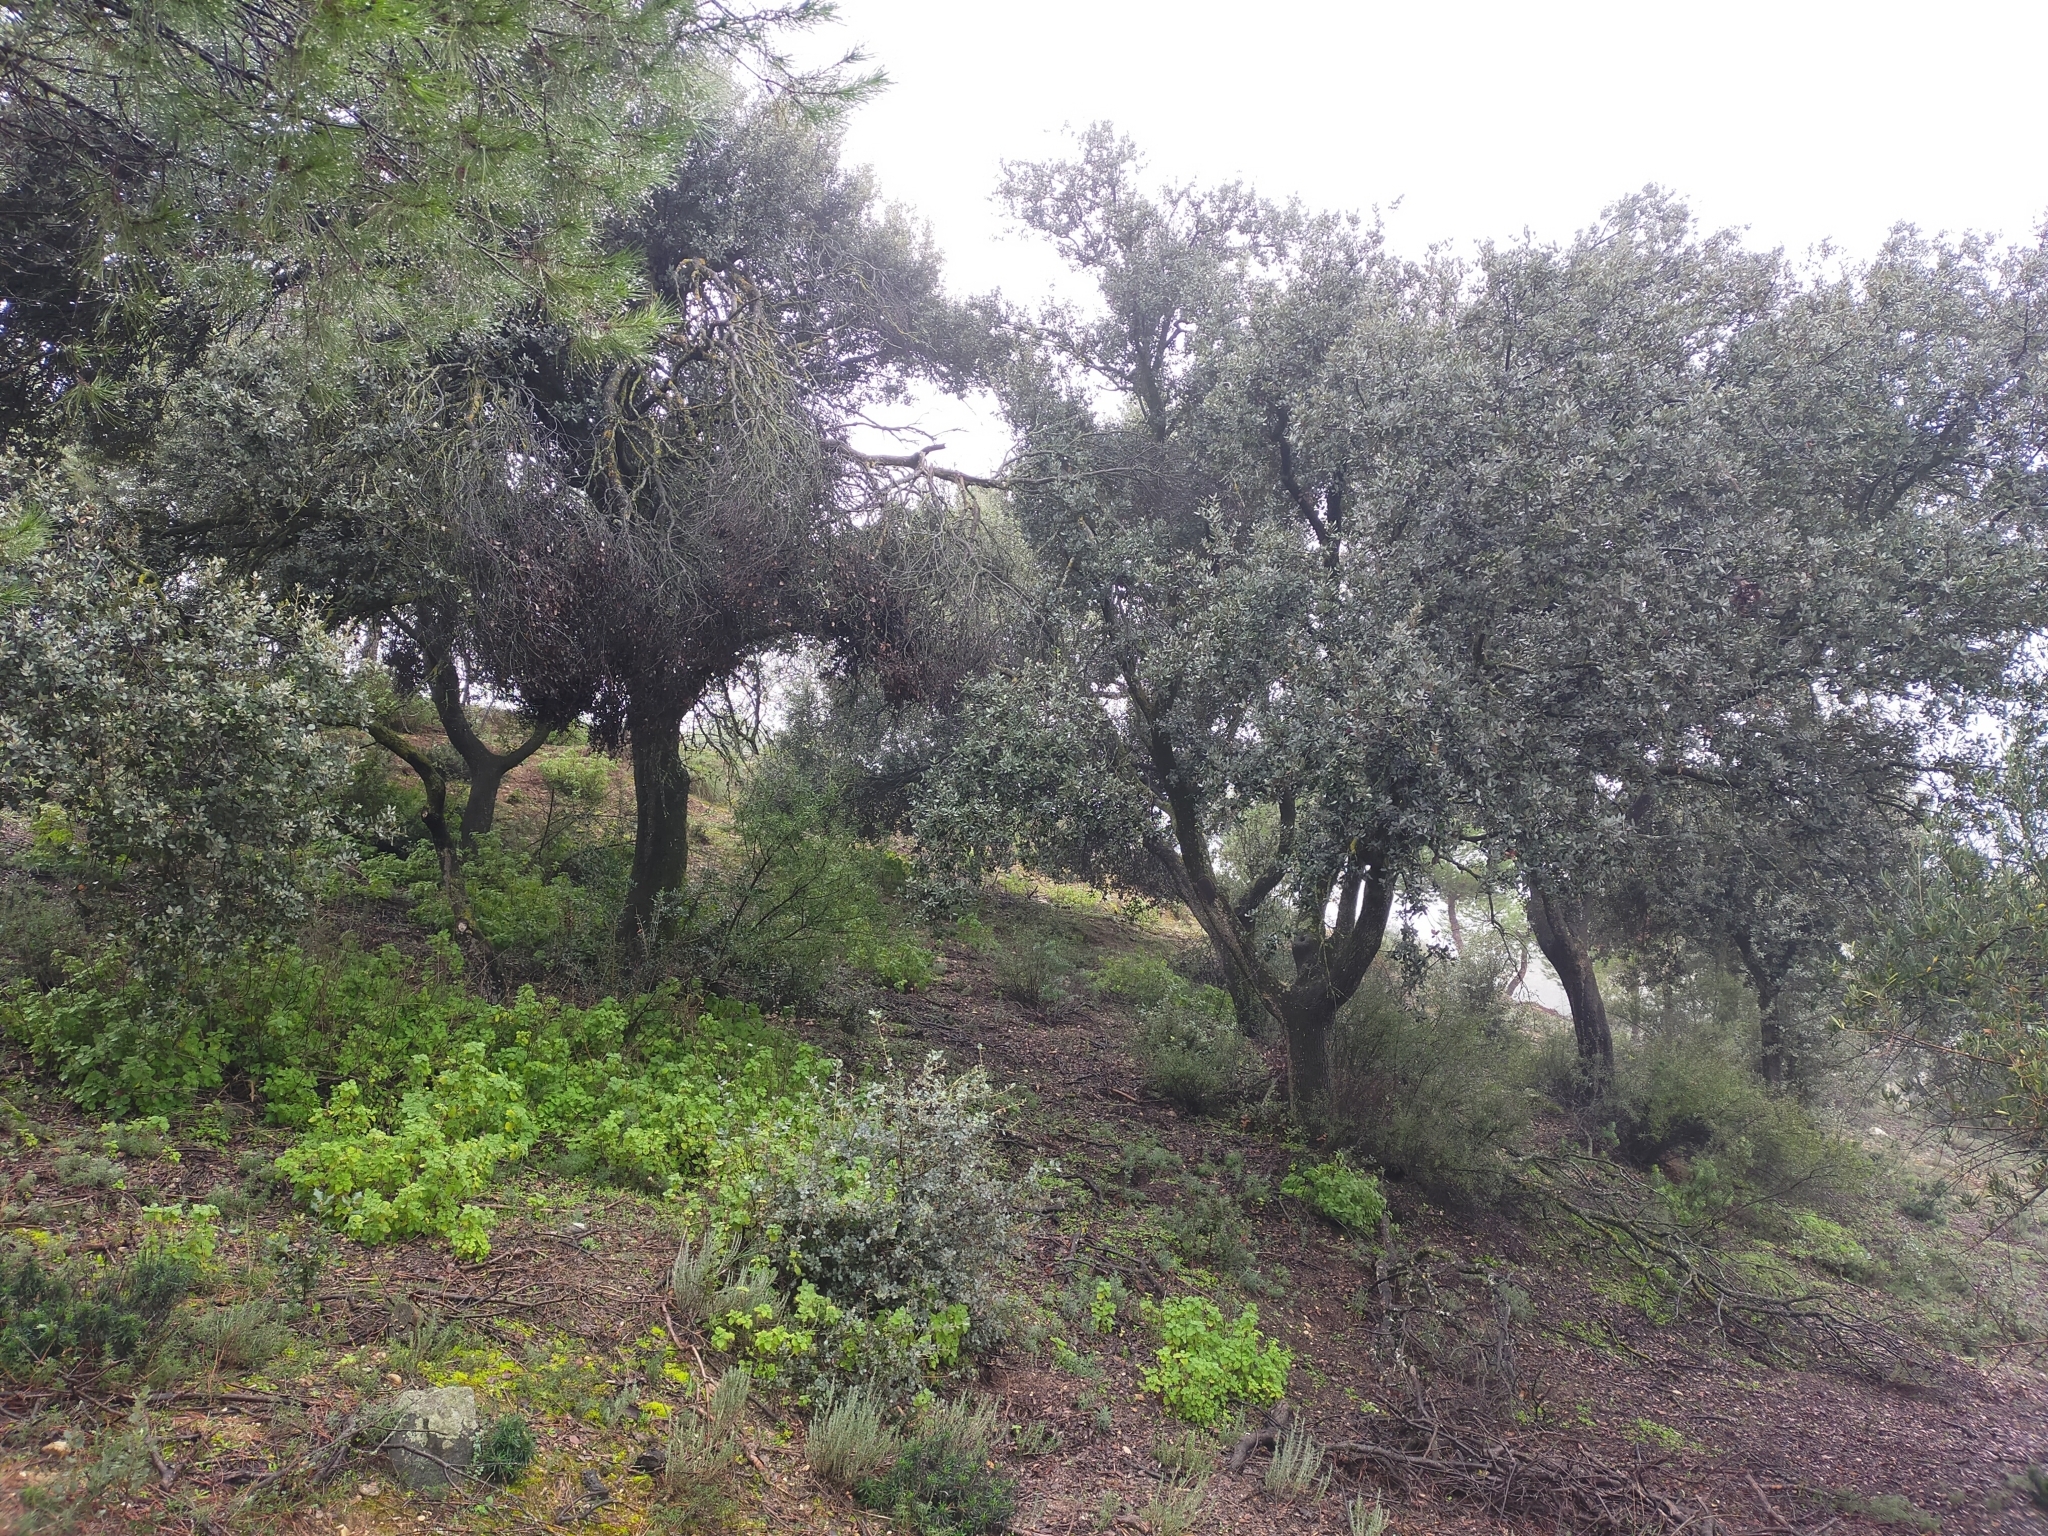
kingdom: Plantae
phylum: Tracheophyta
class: Magnoliopsida
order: Fagales
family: Fagaceae
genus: Quercus
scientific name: Quercus rotundifolia
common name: Holm oak
